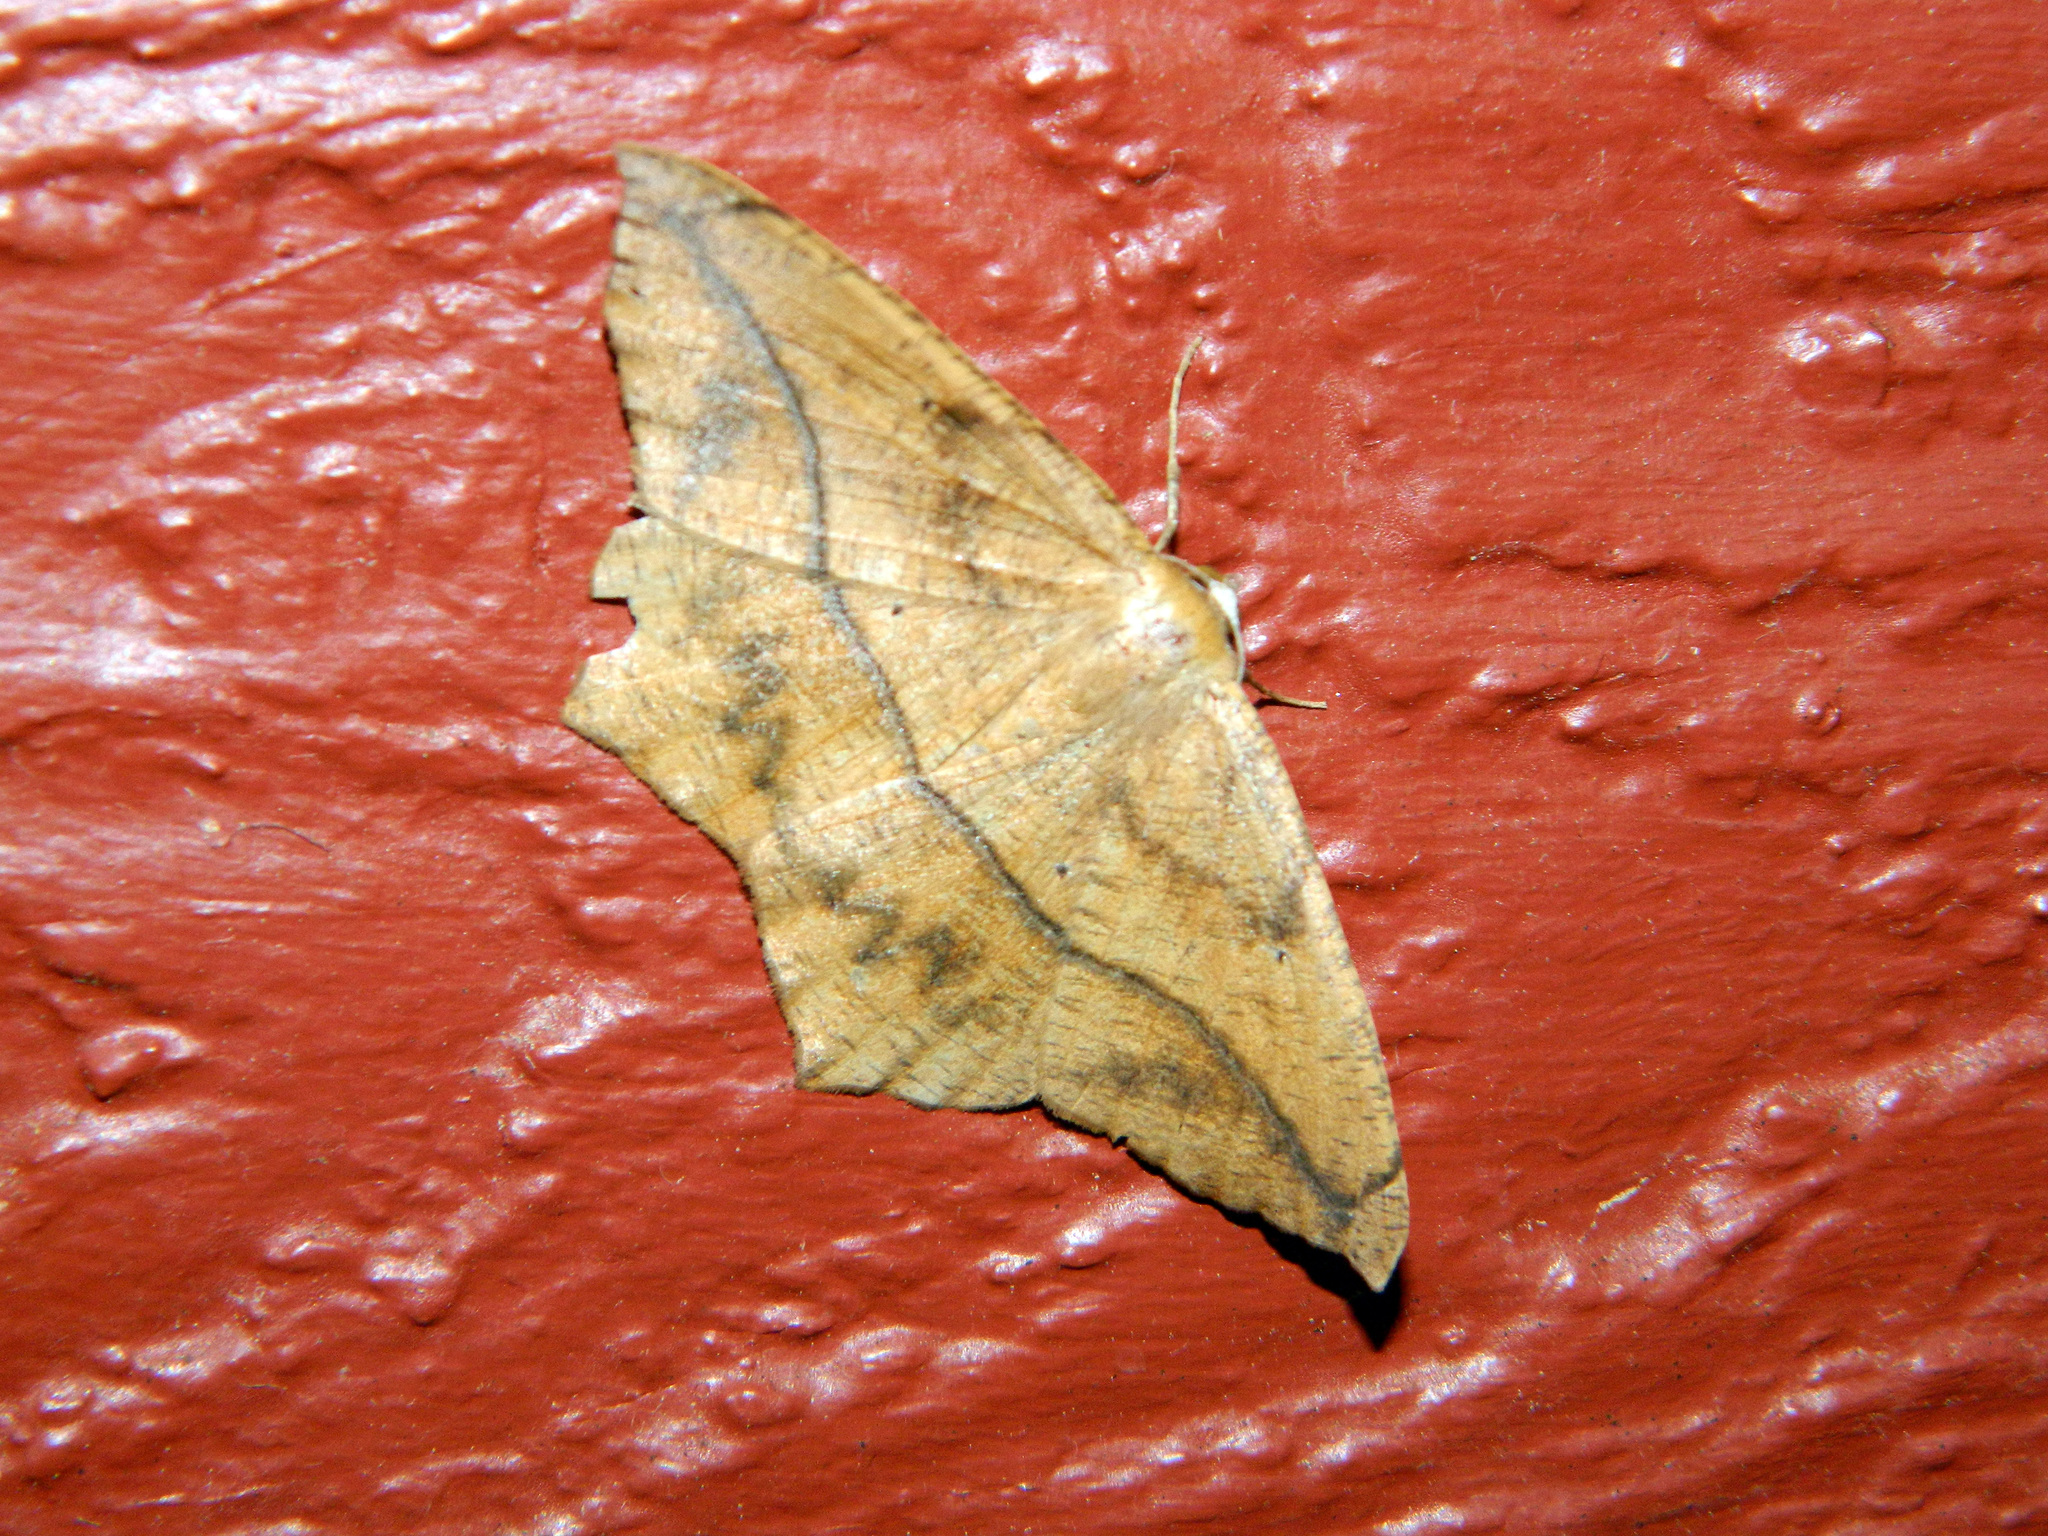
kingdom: Animalia
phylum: Arthropoda
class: Insecta
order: Lepidoptera
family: Geometridae
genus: Prochoerodes
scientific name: Prochoerodes lineola
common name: Large maple spanworm
